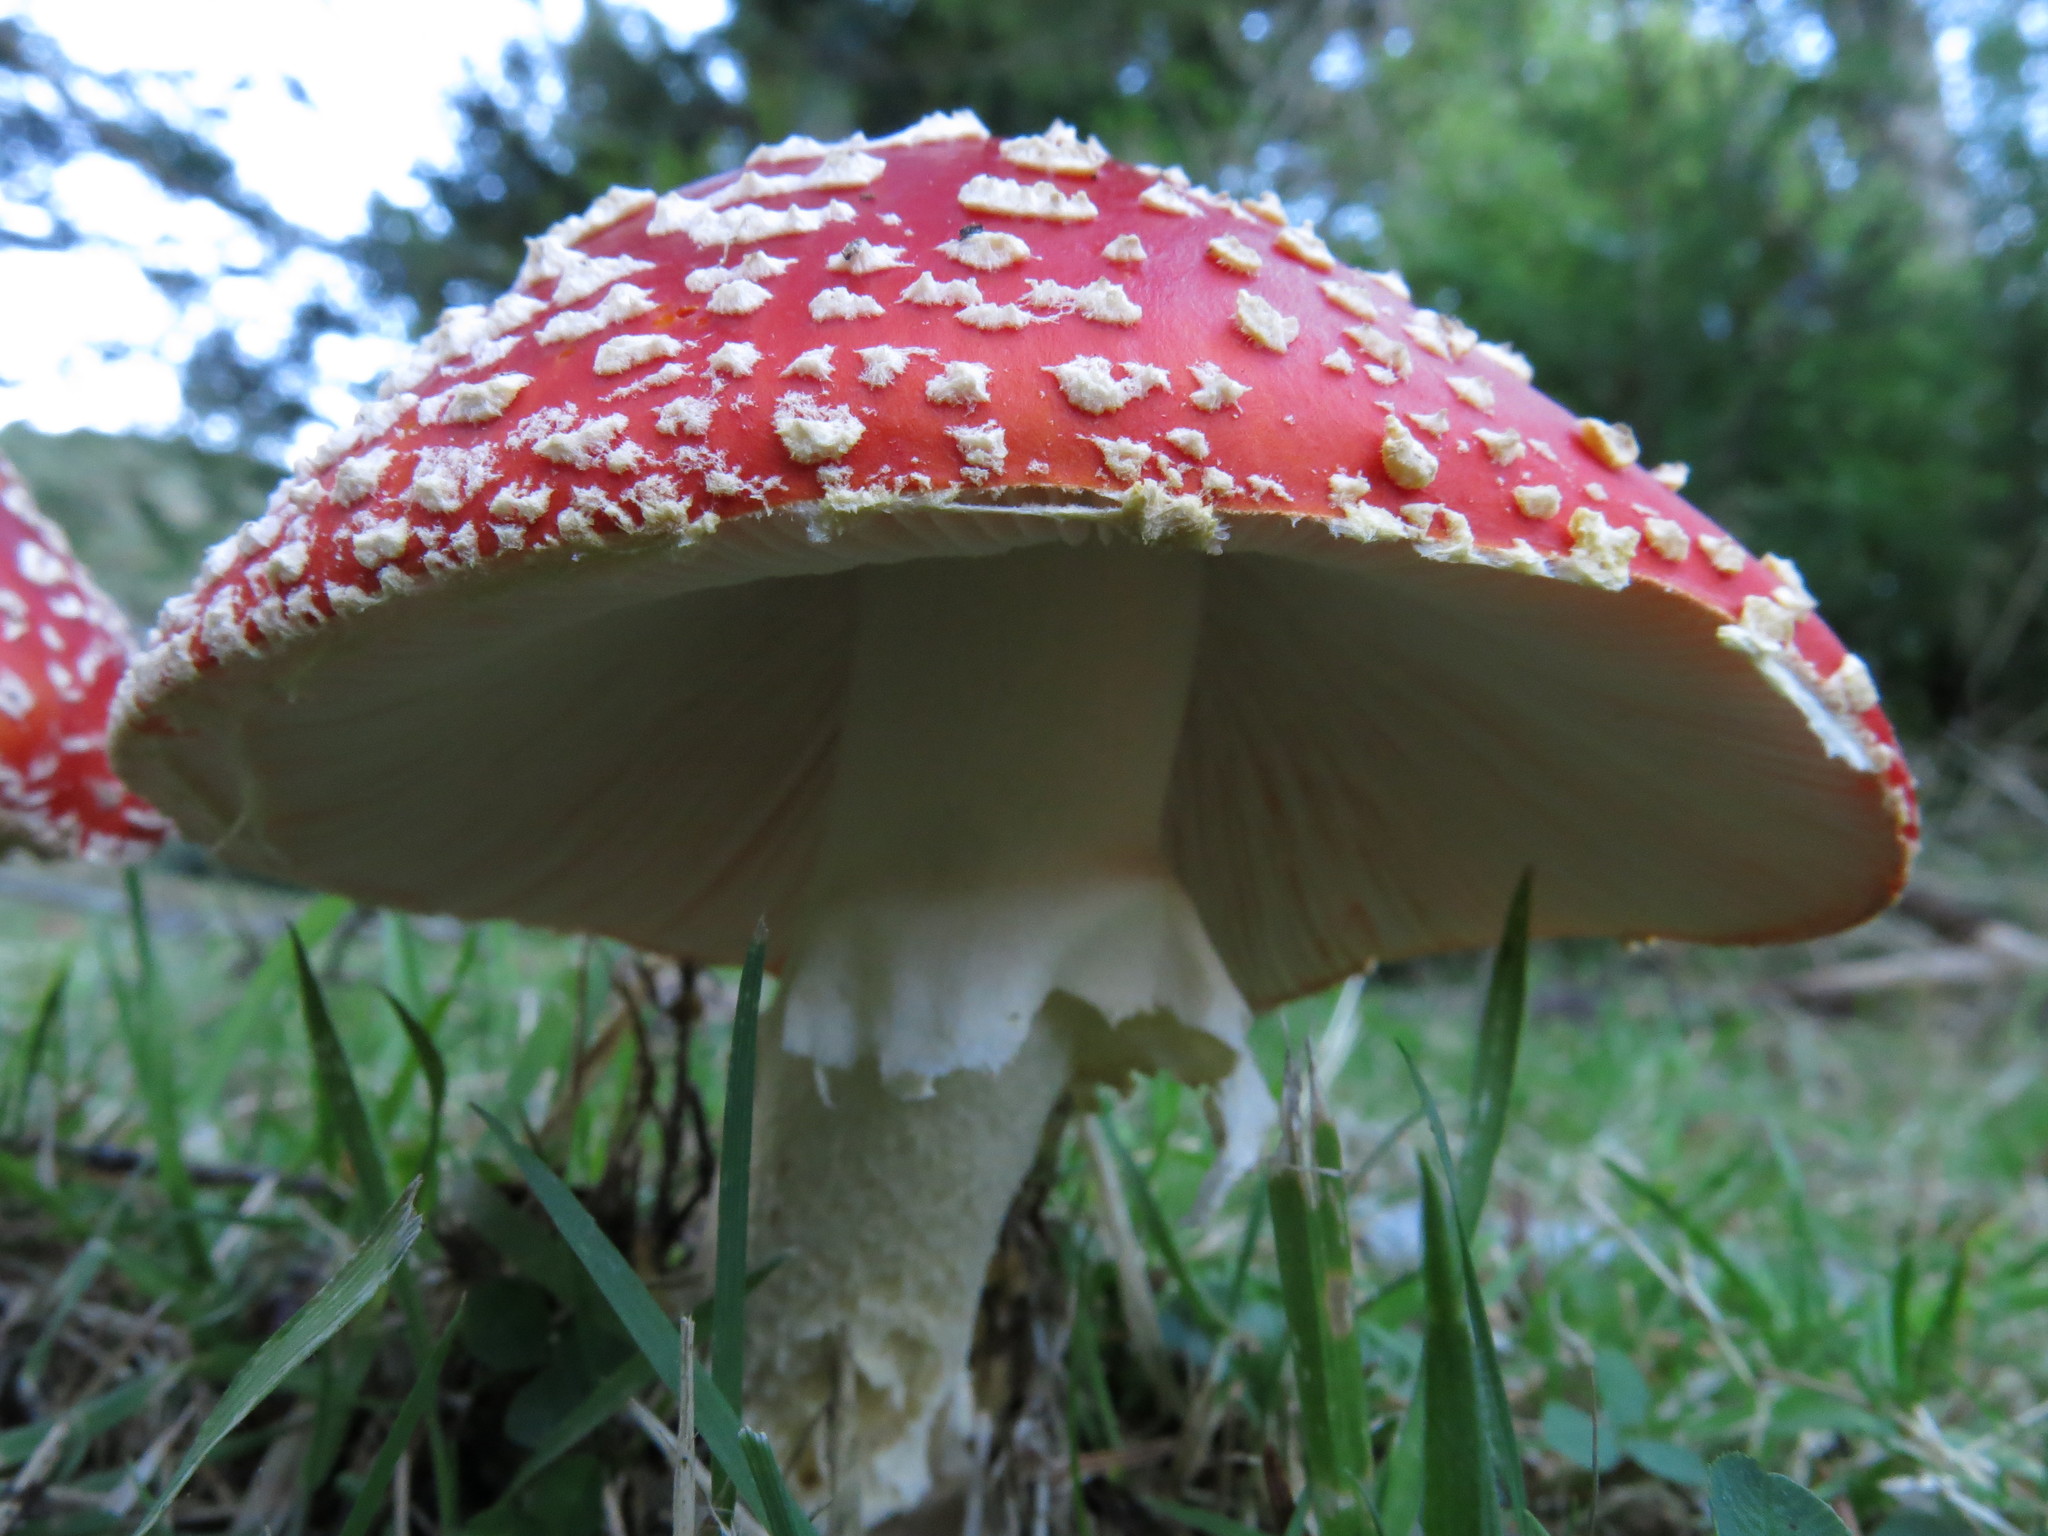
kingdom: Fungi
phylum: Basidiomycota
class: Agaricomycetes
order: Agaricales
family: Amanitaceae
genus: Amanita
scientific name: Amanita muscaria
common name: Fly agaric
